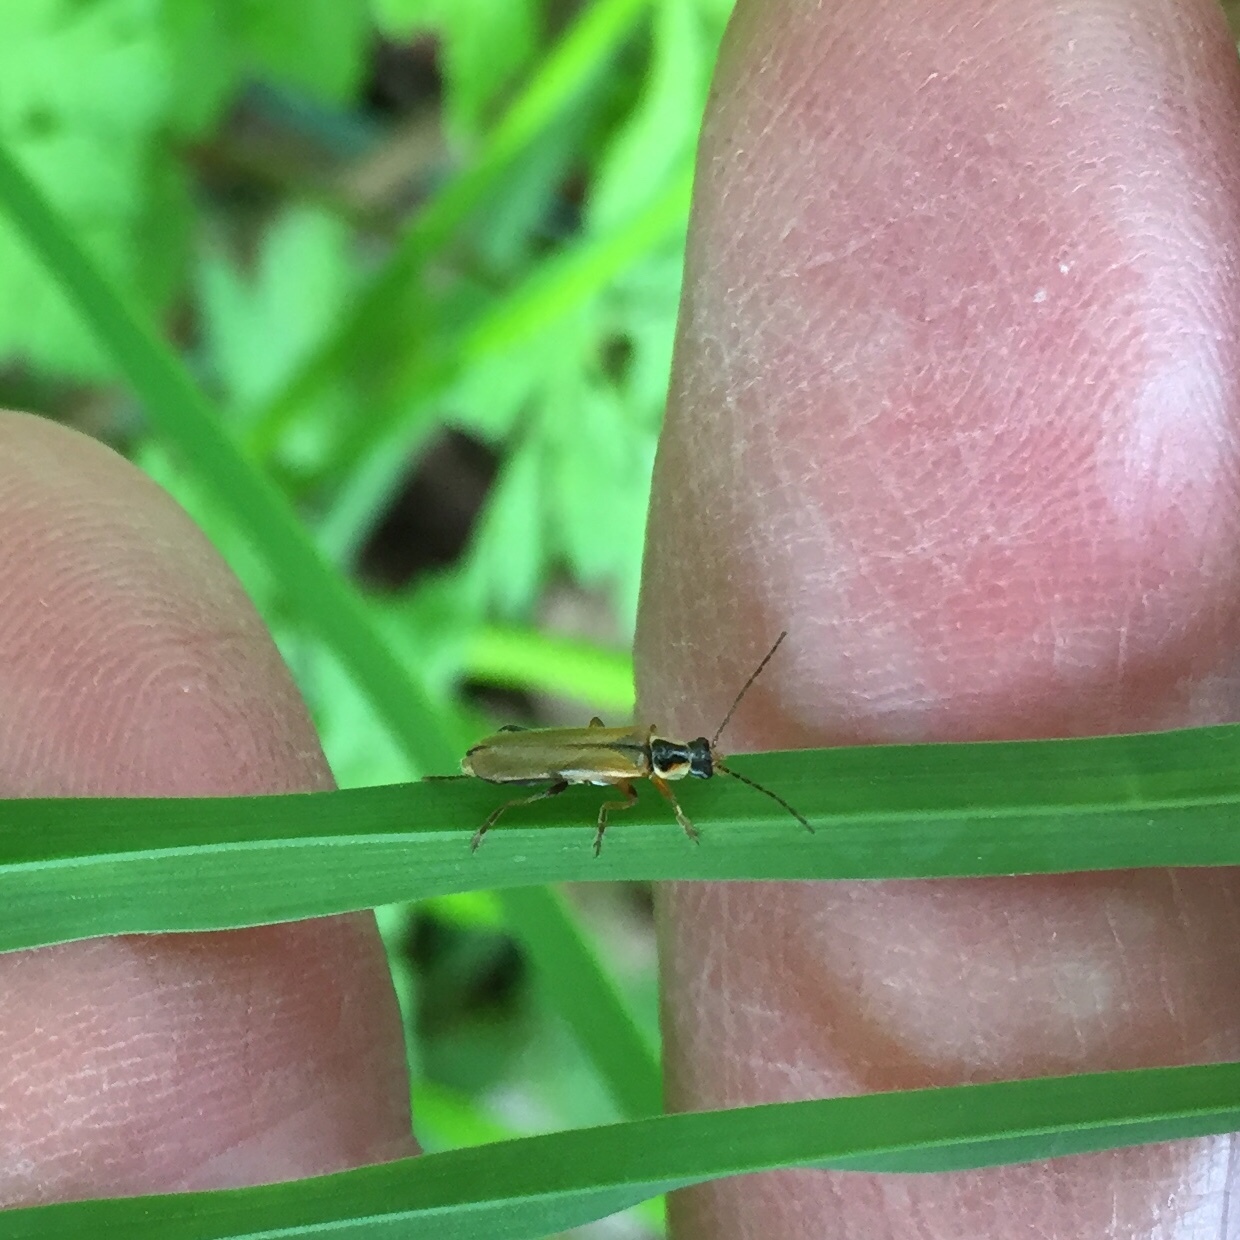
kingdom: Animalia
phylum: Arthropoda
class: Insecta
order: Coleoptera
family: Cantharidae
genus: Cantharis
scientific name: Cantharis decipiens
